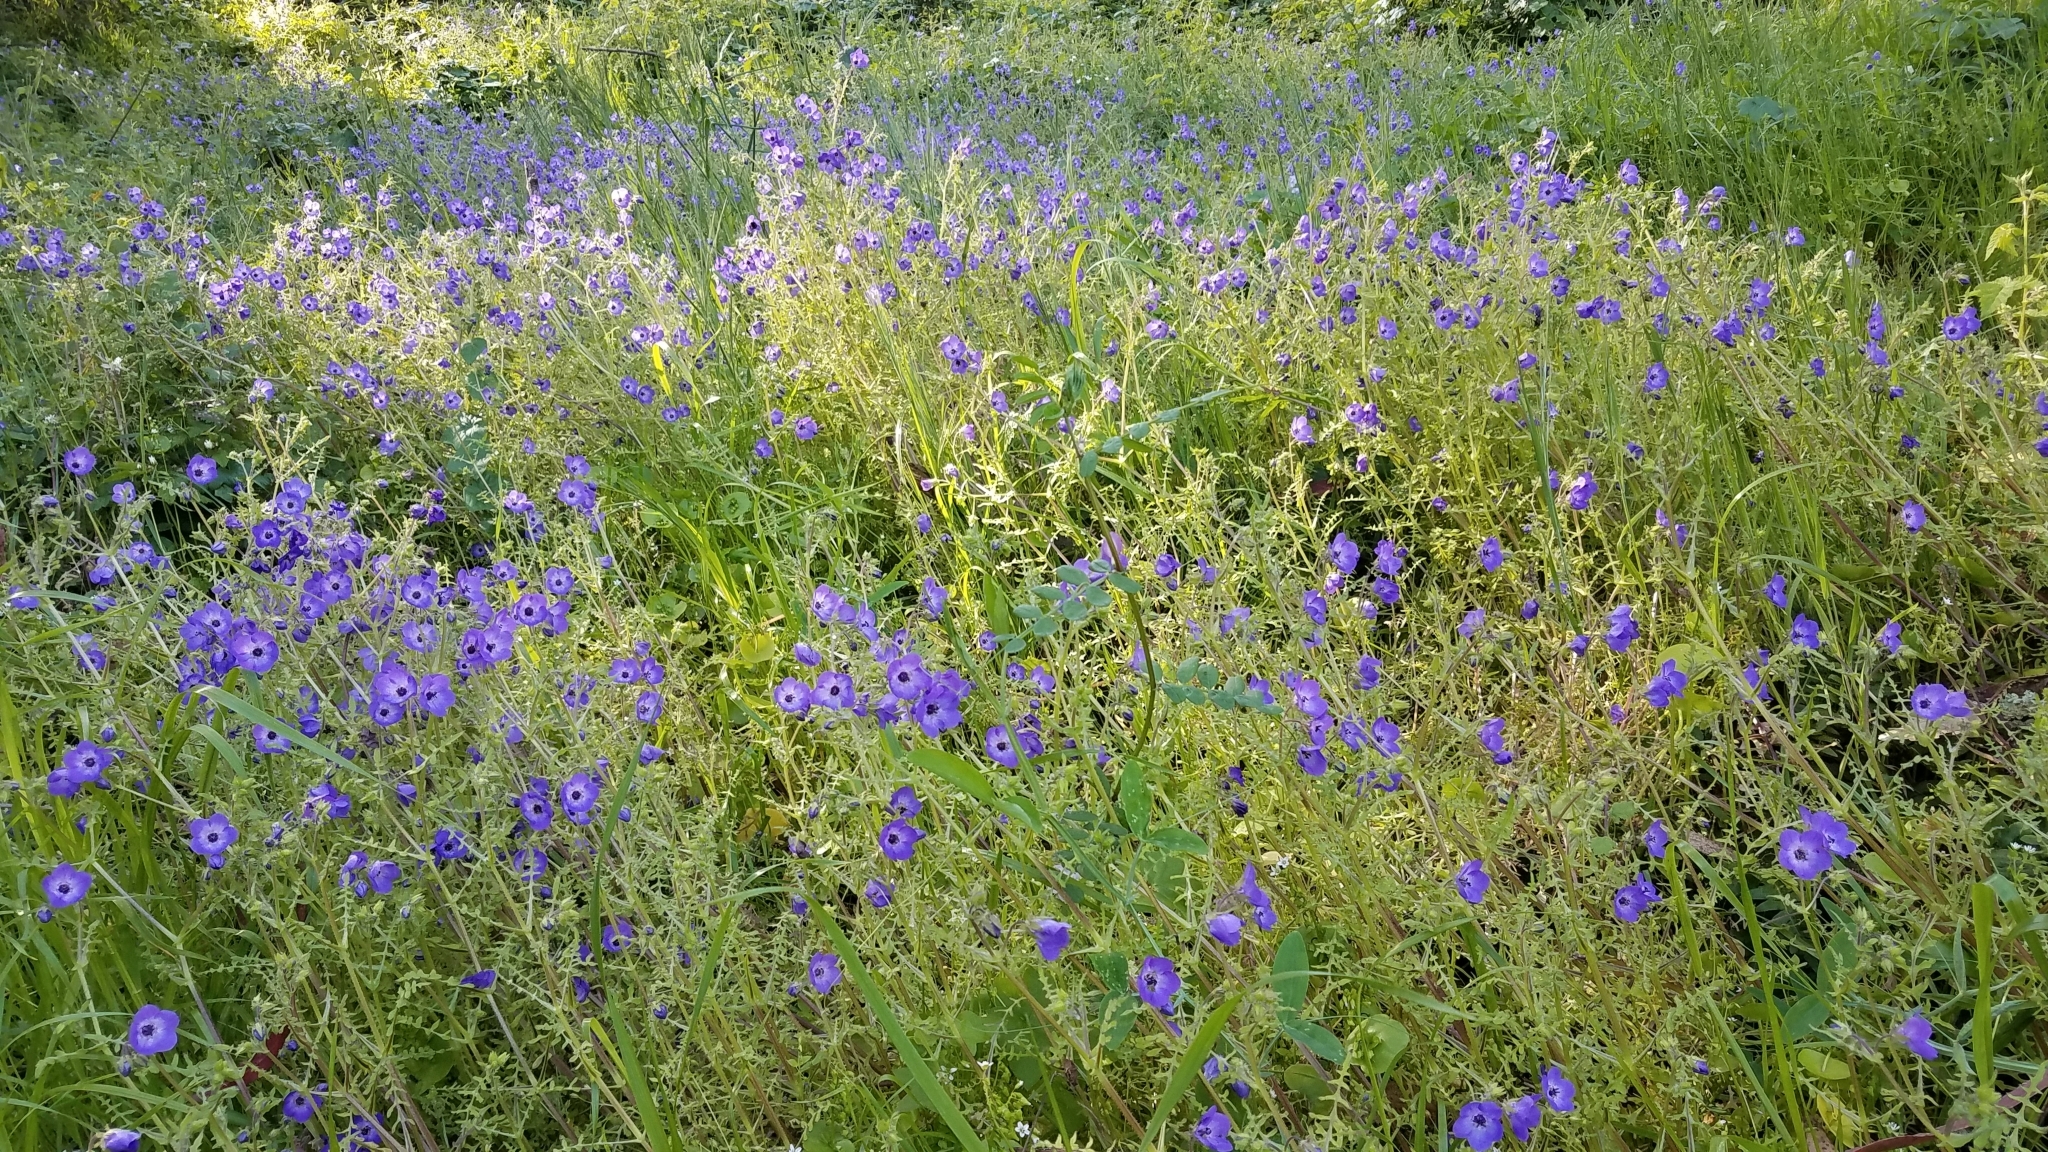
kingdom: Plantae
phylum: Tracheophyta
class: Magnoliopsida
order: Boraginales
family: Hydrophyllaceae
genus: Pholistoma
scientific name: Pholistoma auritum
